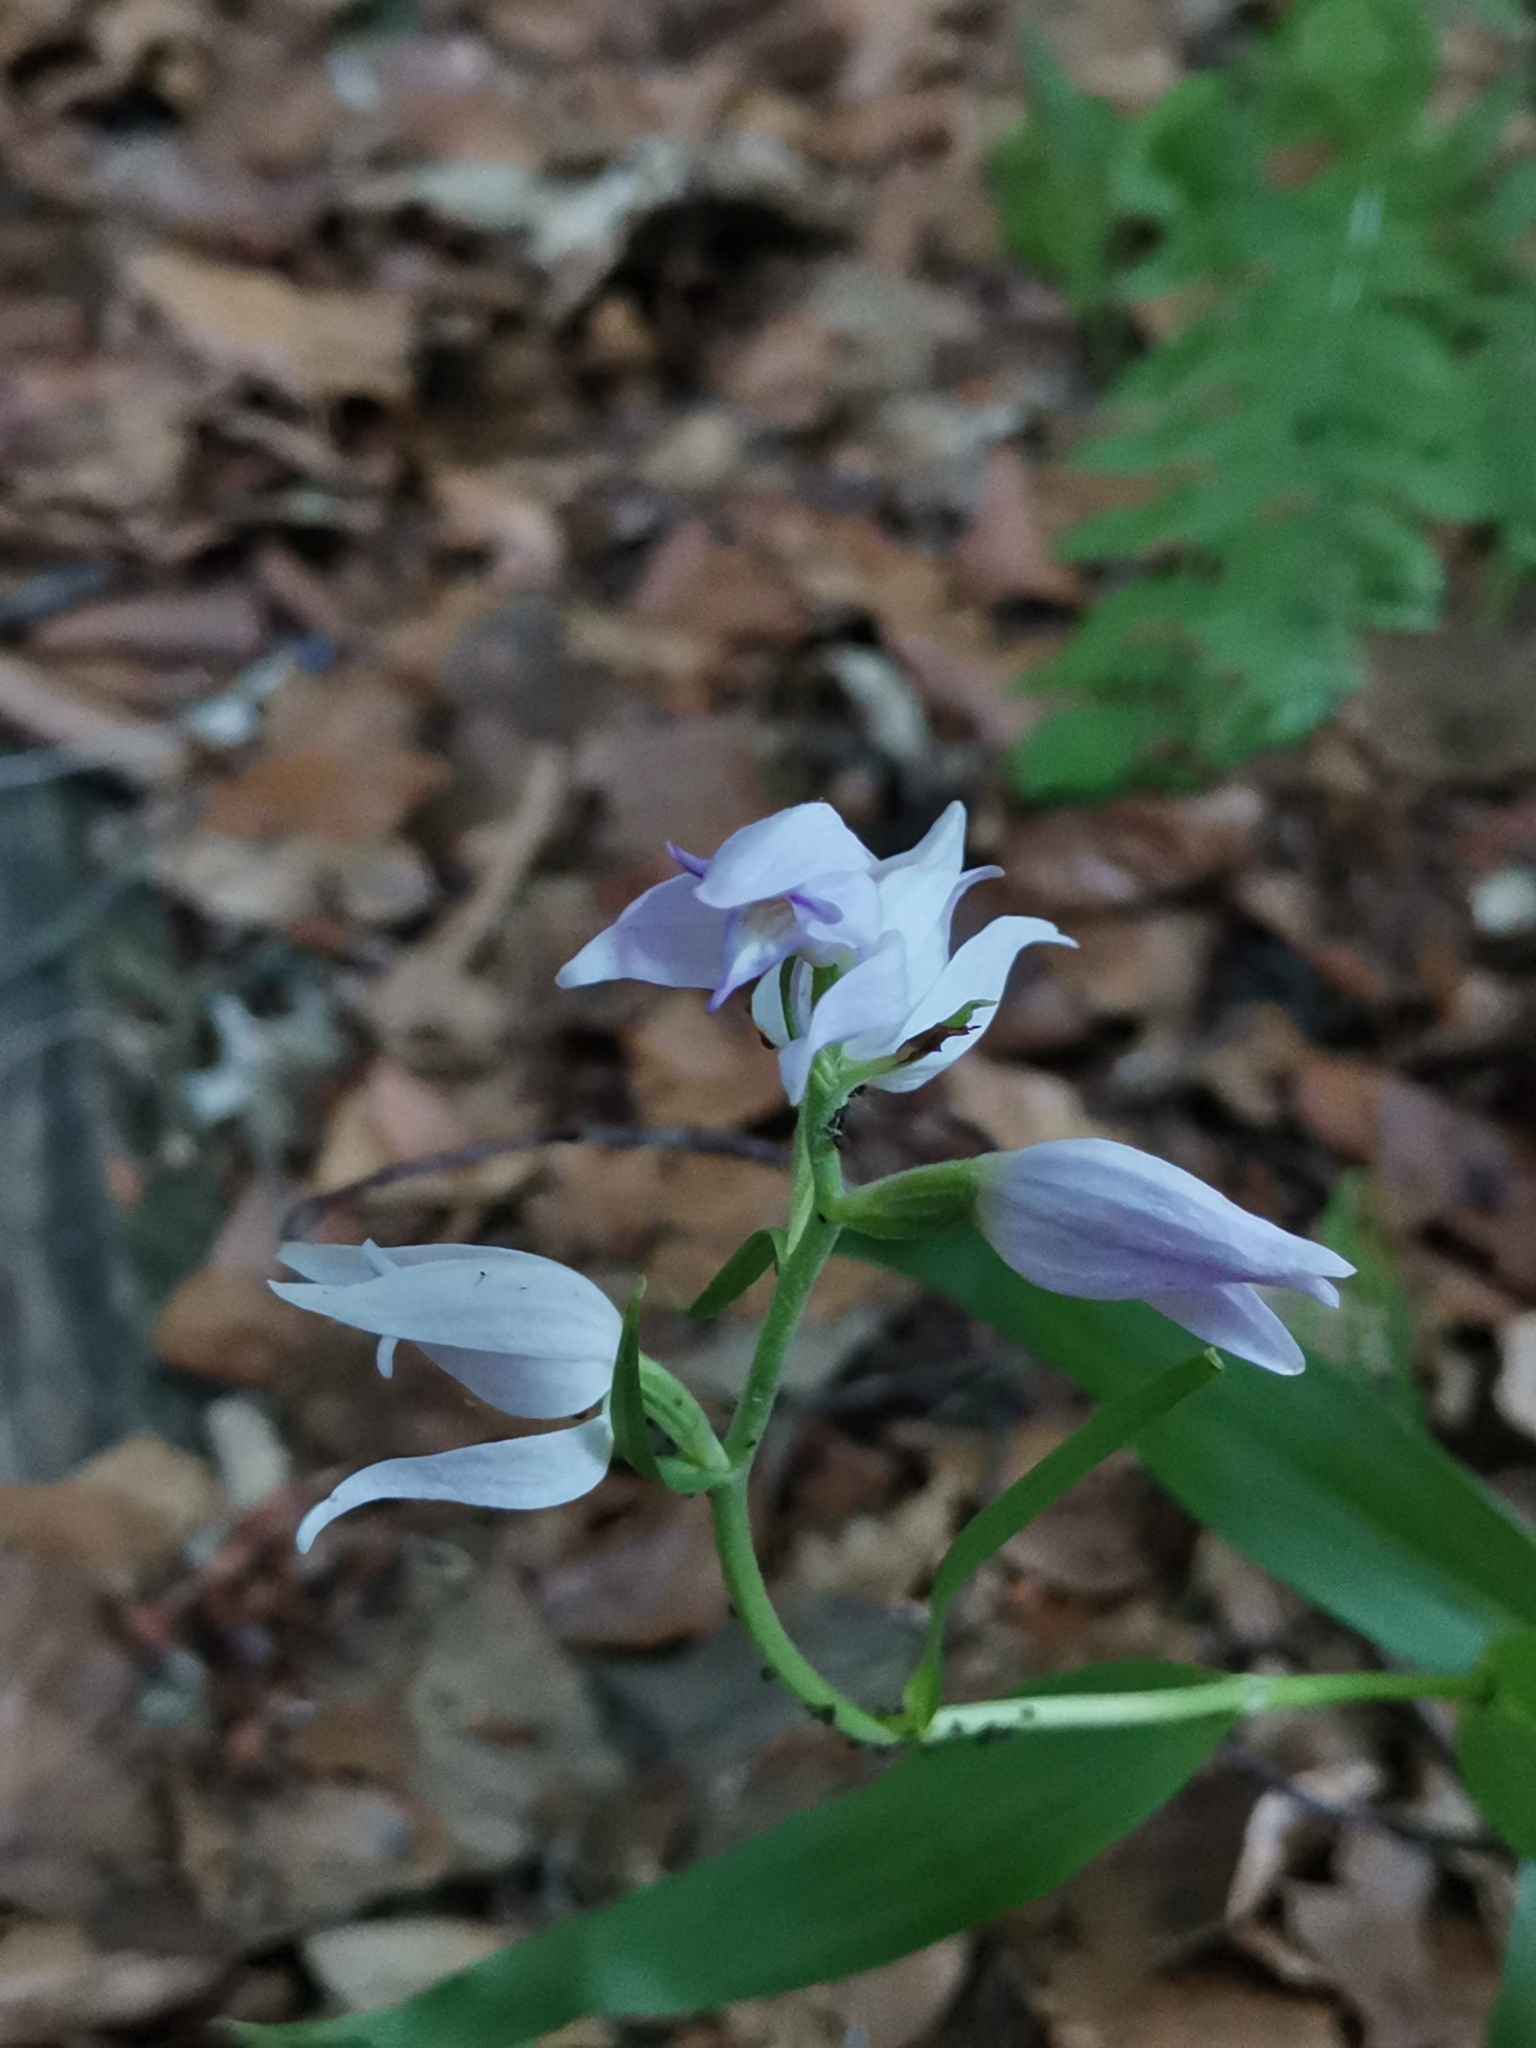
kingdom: Plantae
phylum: Tracheophyta
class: Liliopsida
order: Asparagales
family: Orchidaceae
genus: Cephalanthera
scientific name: Cephalanthera rubra
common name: Red helleborine
